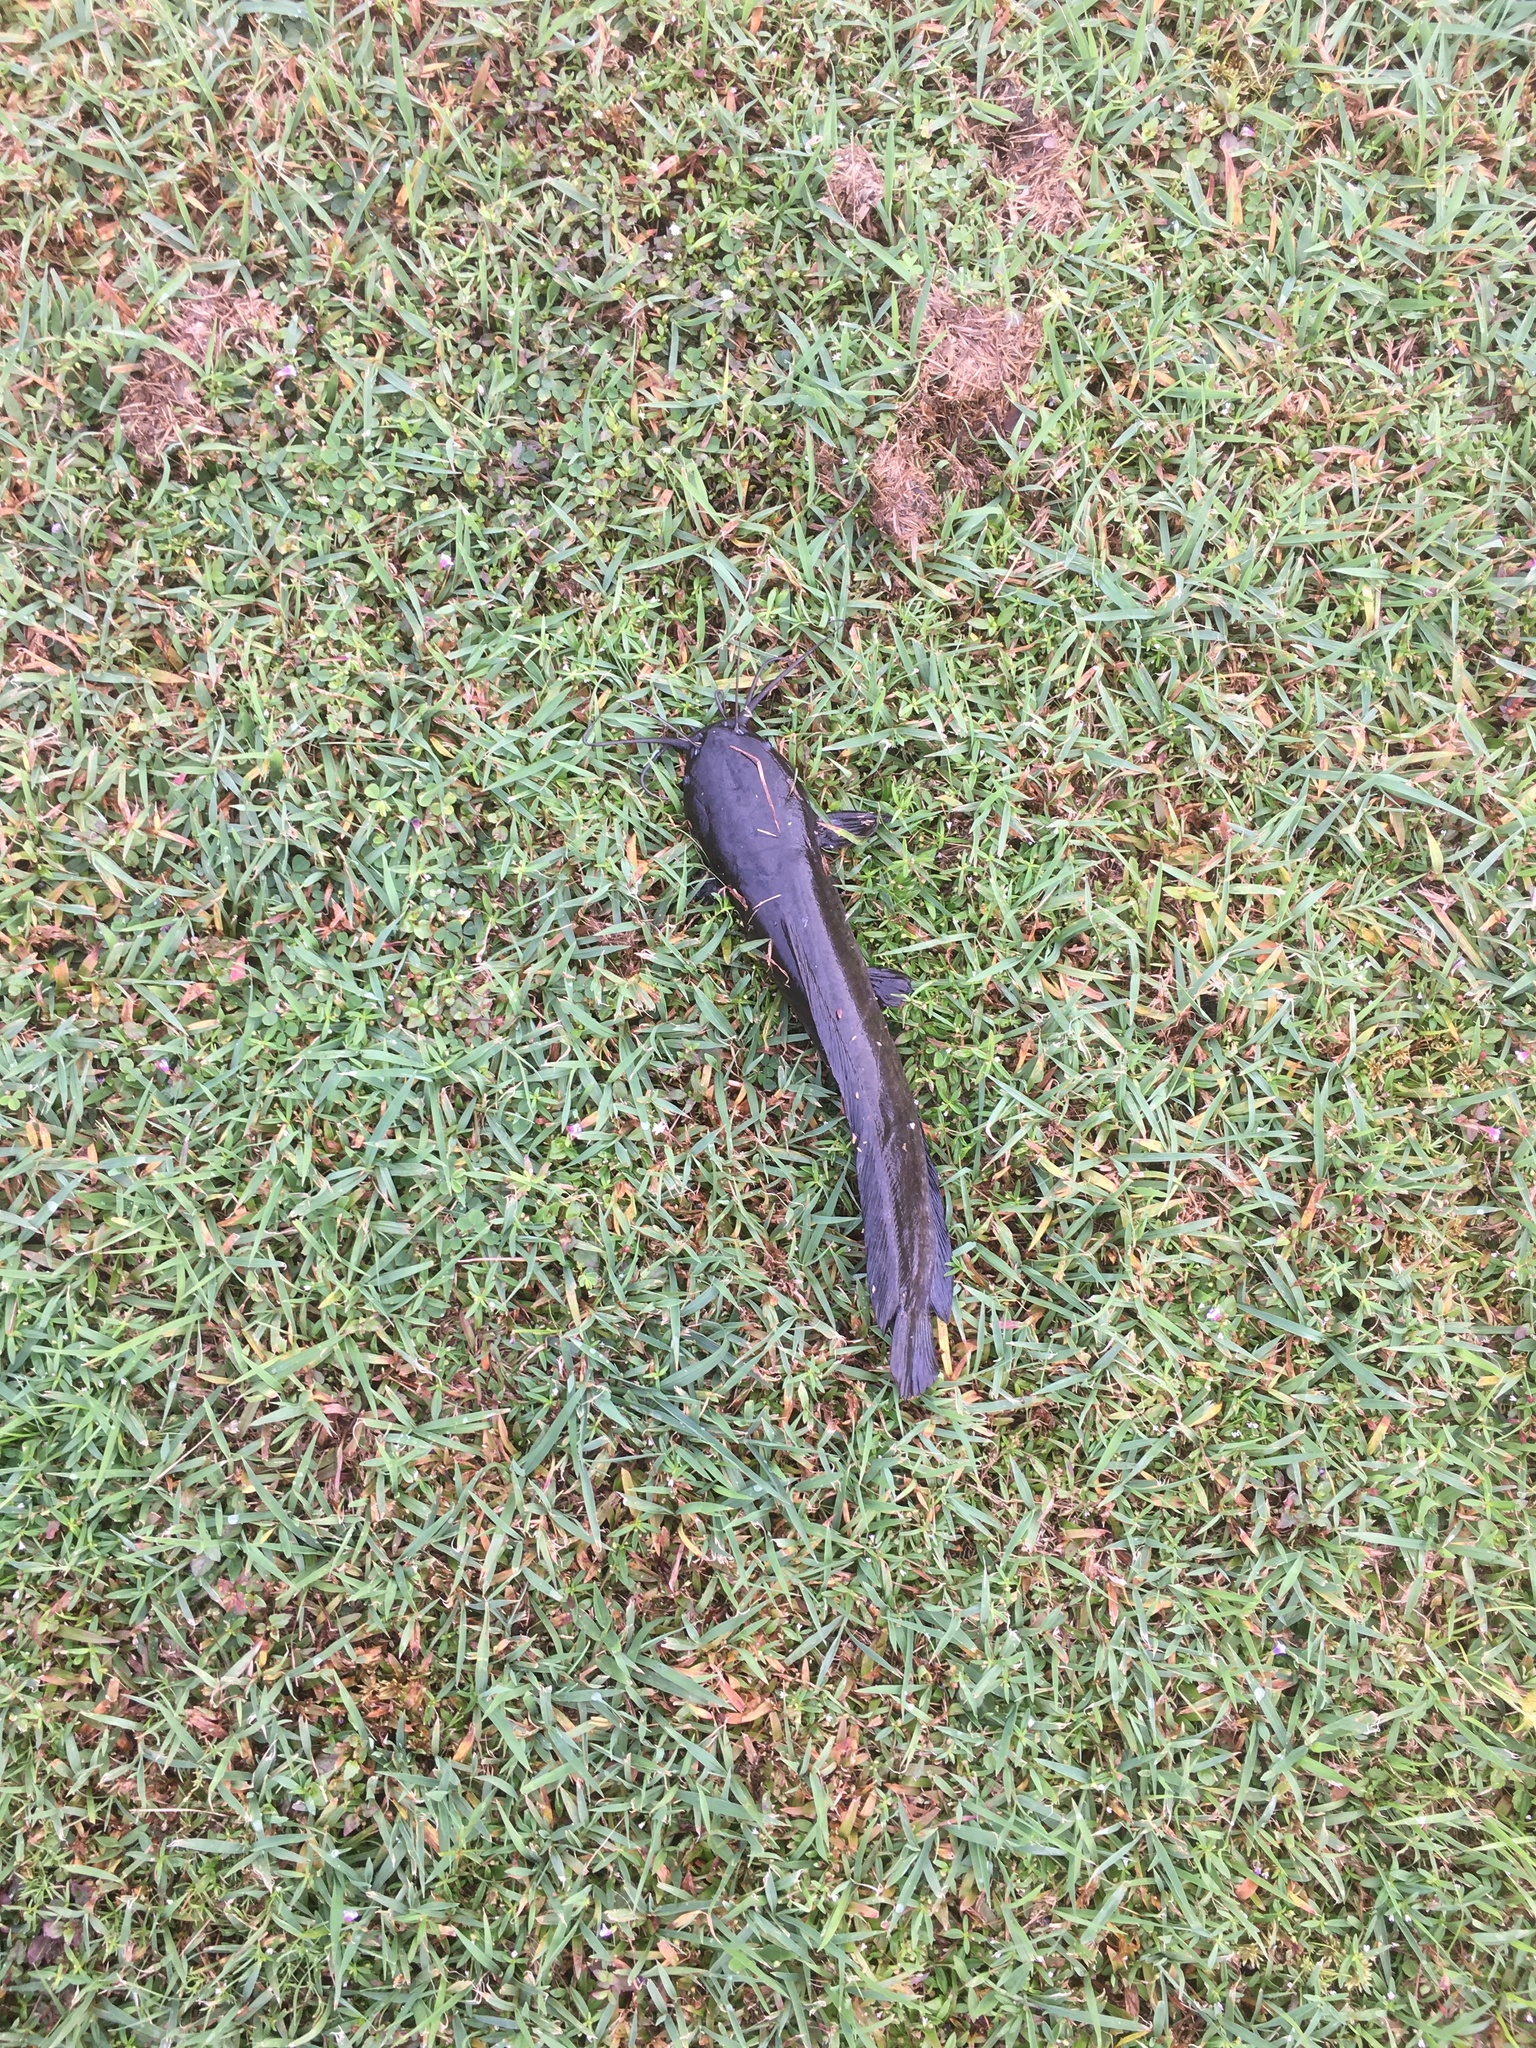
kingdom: Animalia
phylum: Chordata
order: Siluriformes
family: Clariidae
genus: Clarias
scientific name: Clarias batrachus
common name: Walking catfish
